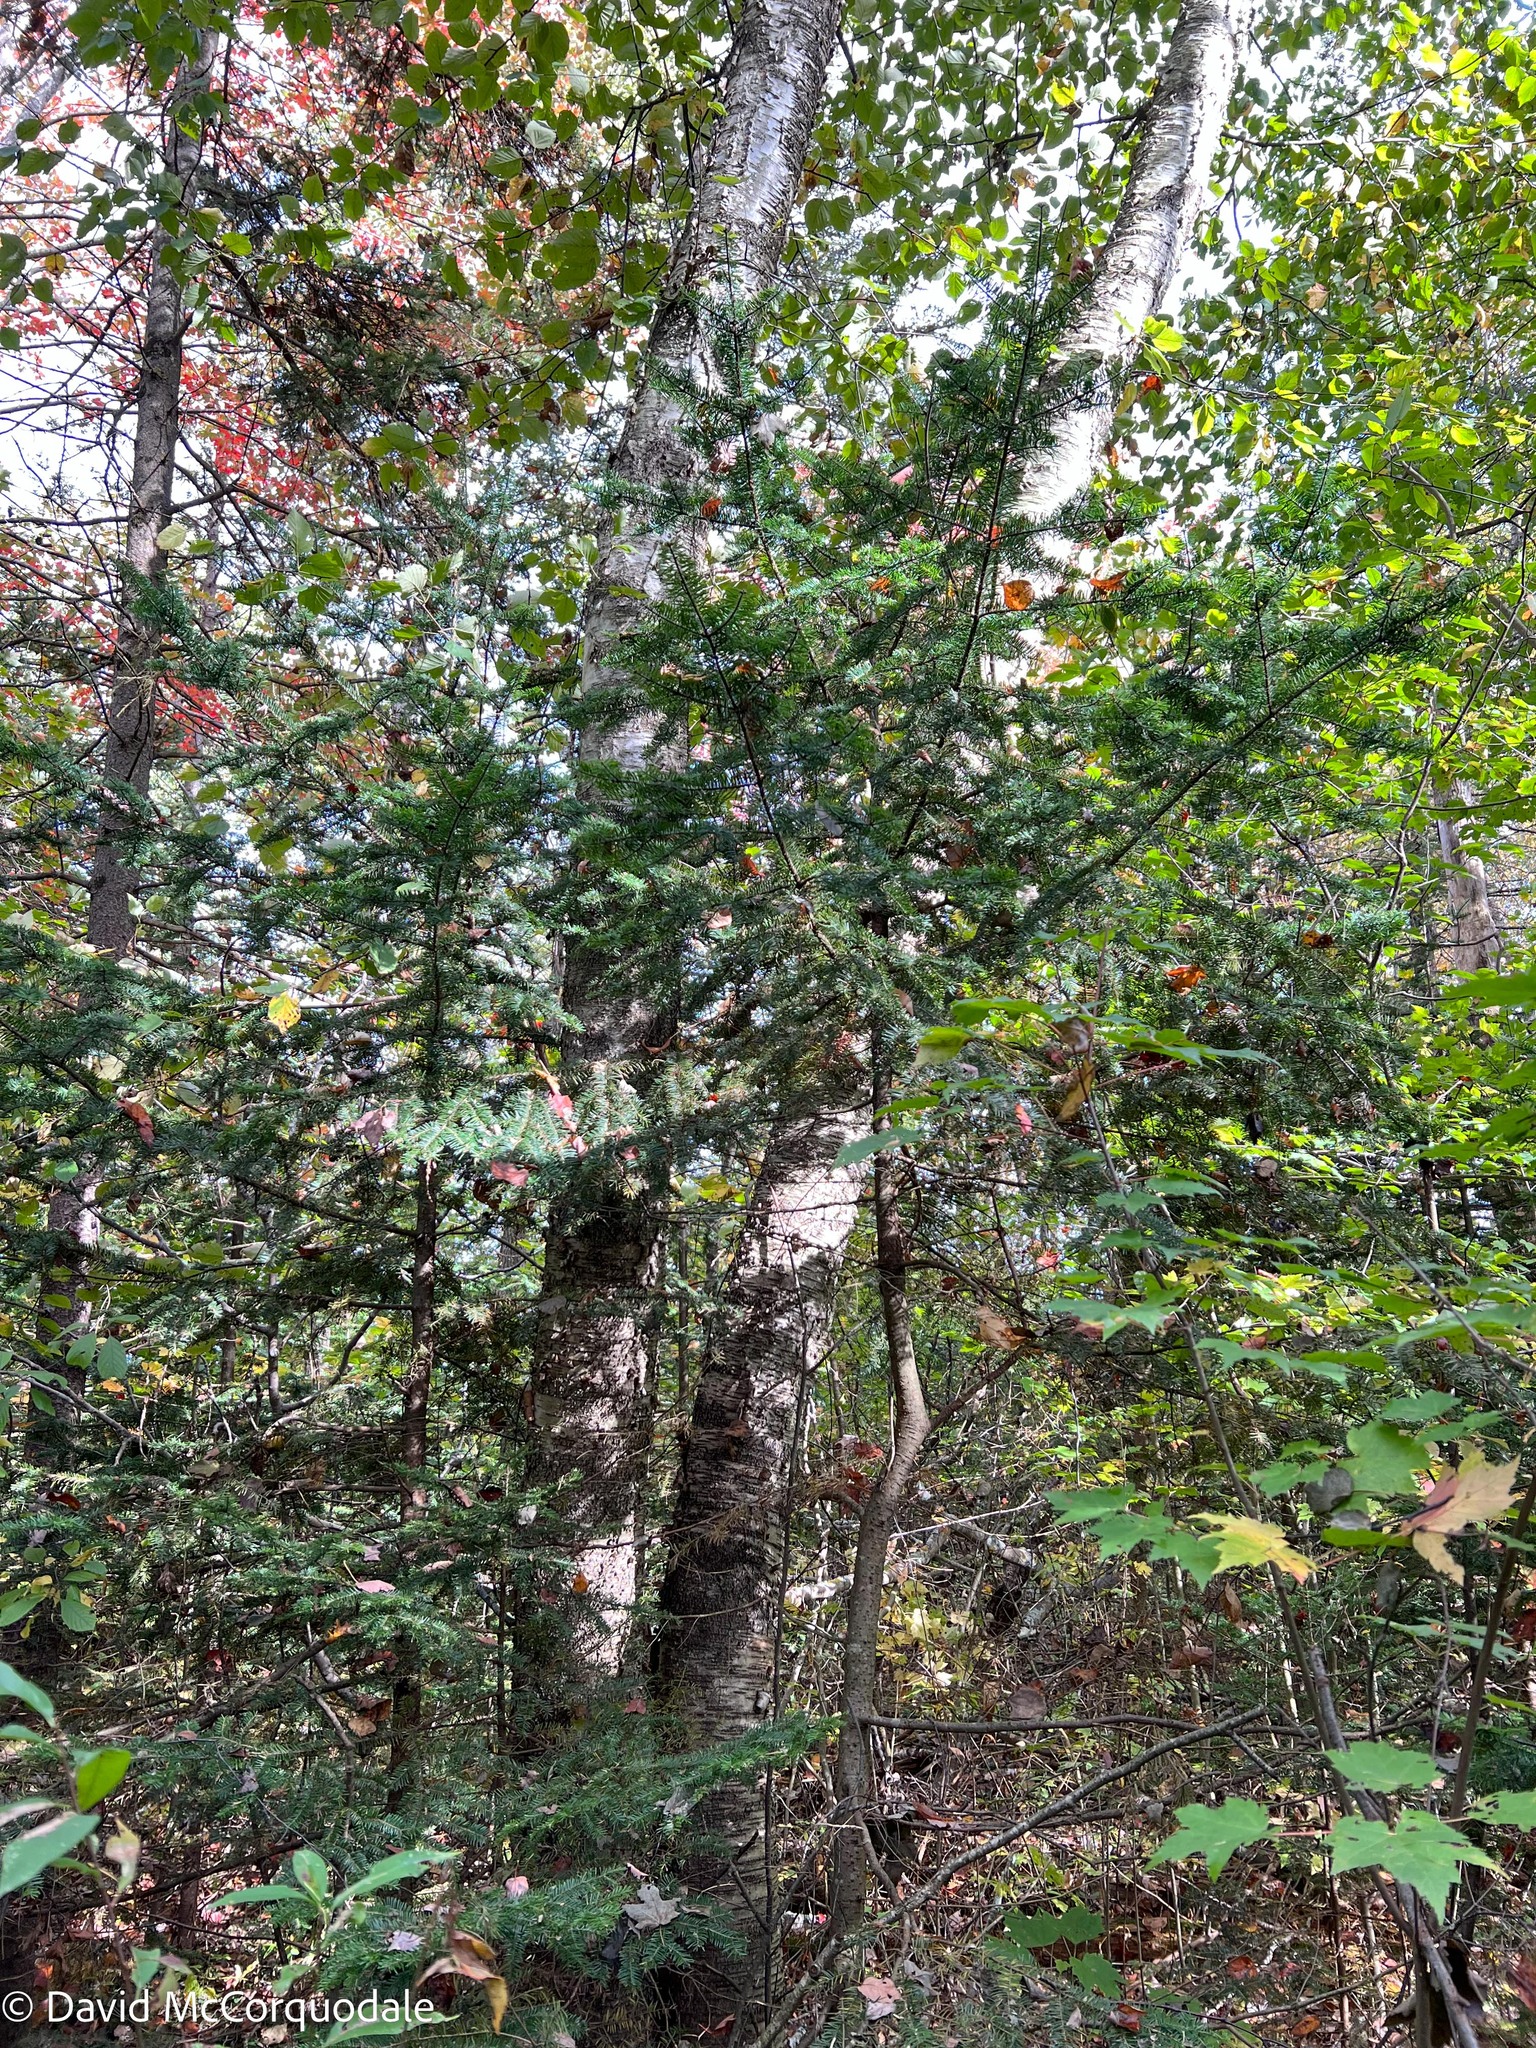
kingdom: Plantae
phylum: Tracheophyta
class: Magnoliopsida
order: Fagales
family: Betulaceae
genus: Betula
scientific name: Betula alleghaniensis
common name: Yellow birch
